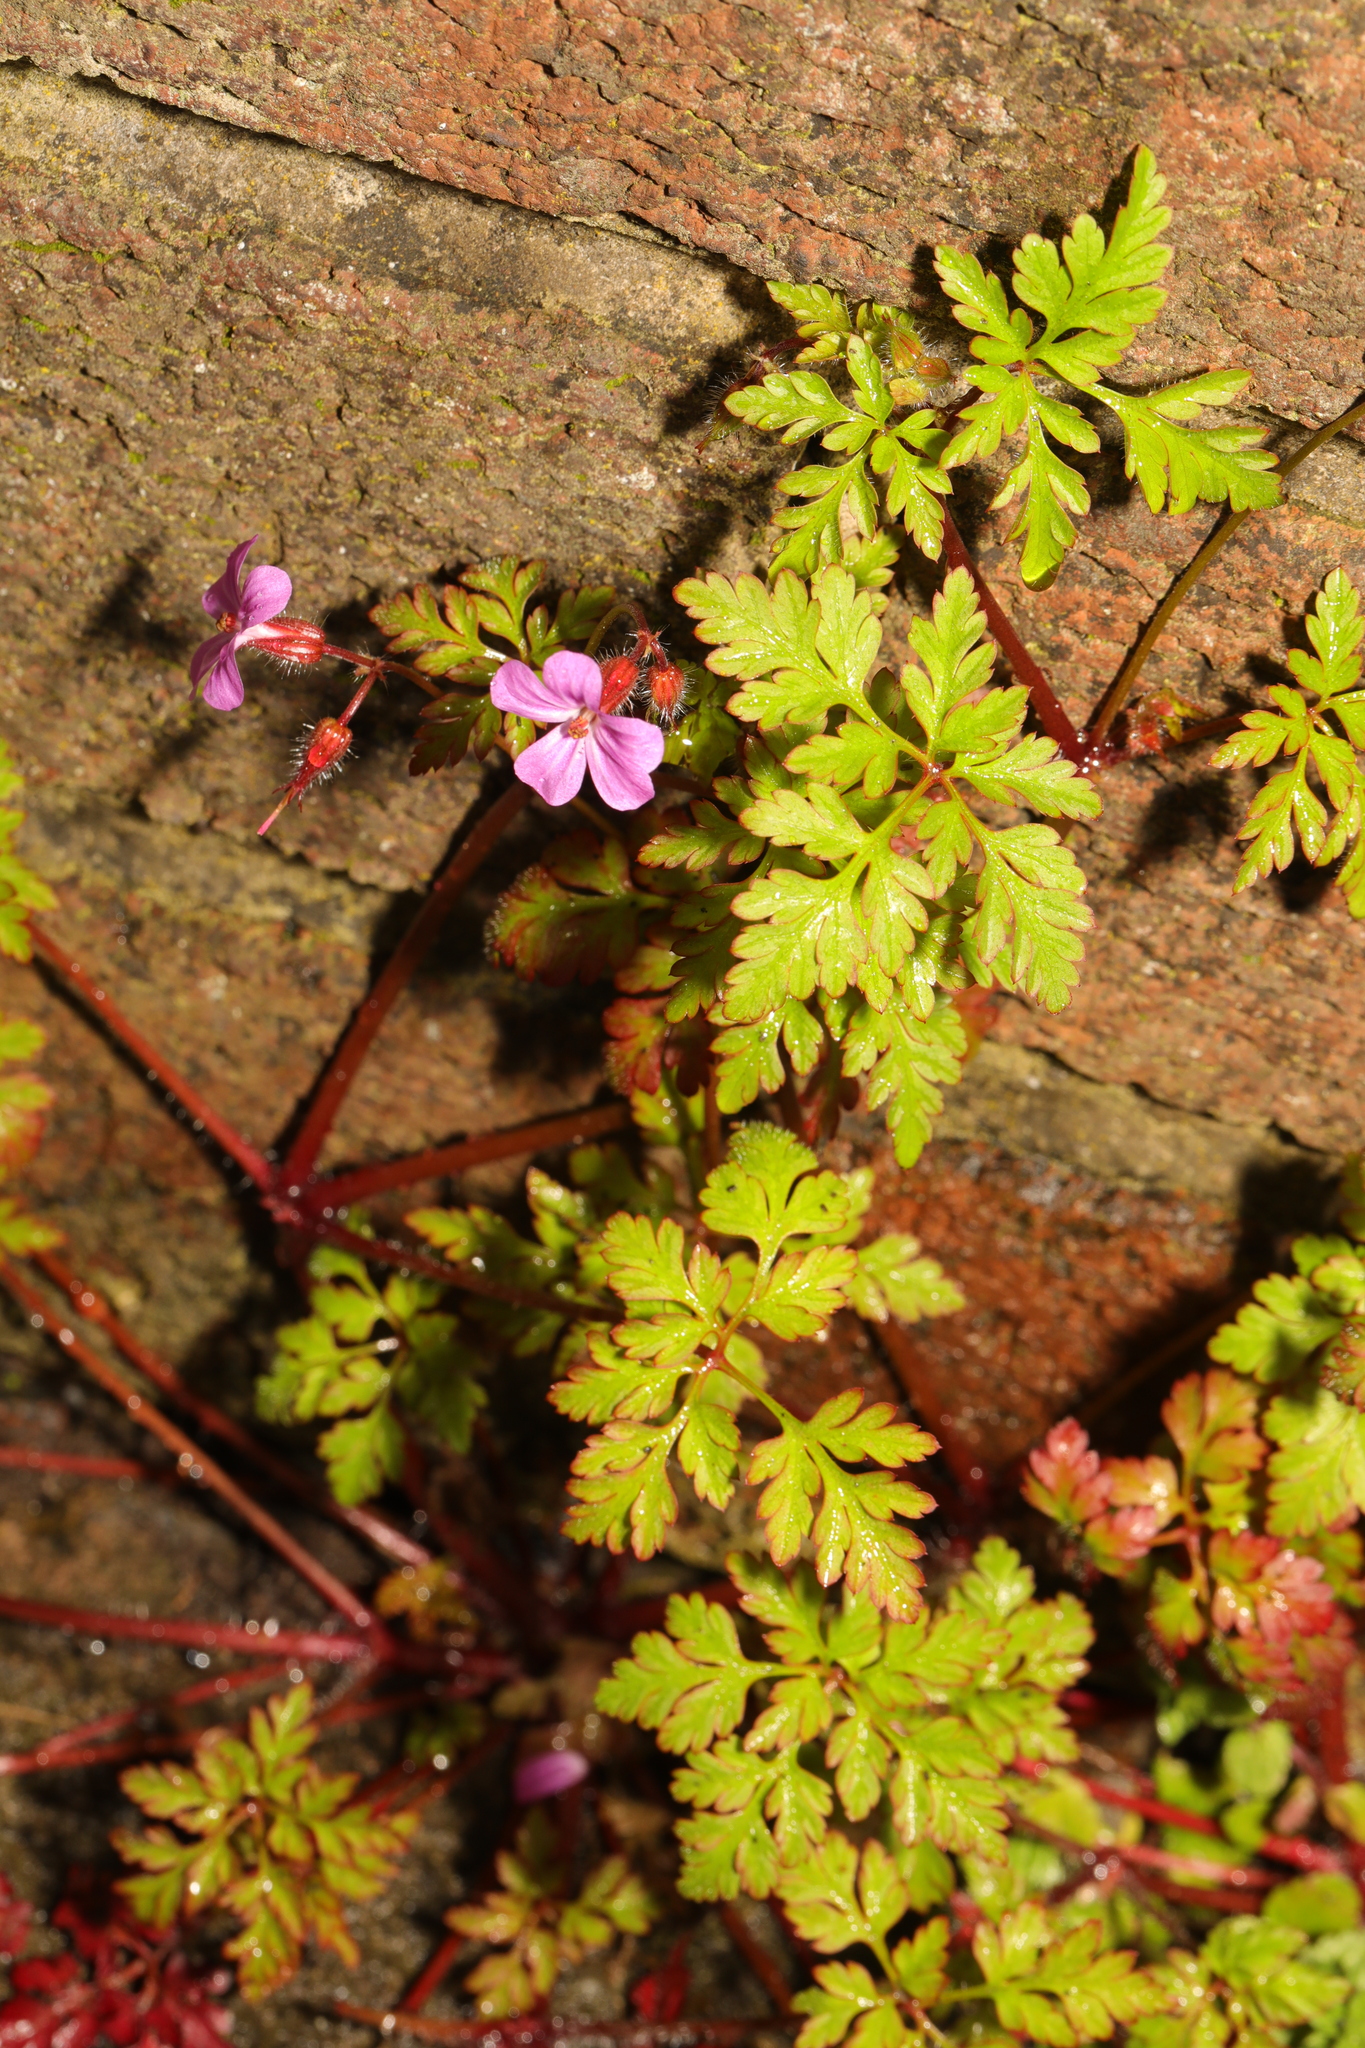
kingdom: Plantae
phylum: Tracheophyta
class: Magnoliopsida
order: Geraniales
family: Geraniaceae
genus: Geranium
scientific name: Geranium robertianum
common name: Herb-robert
